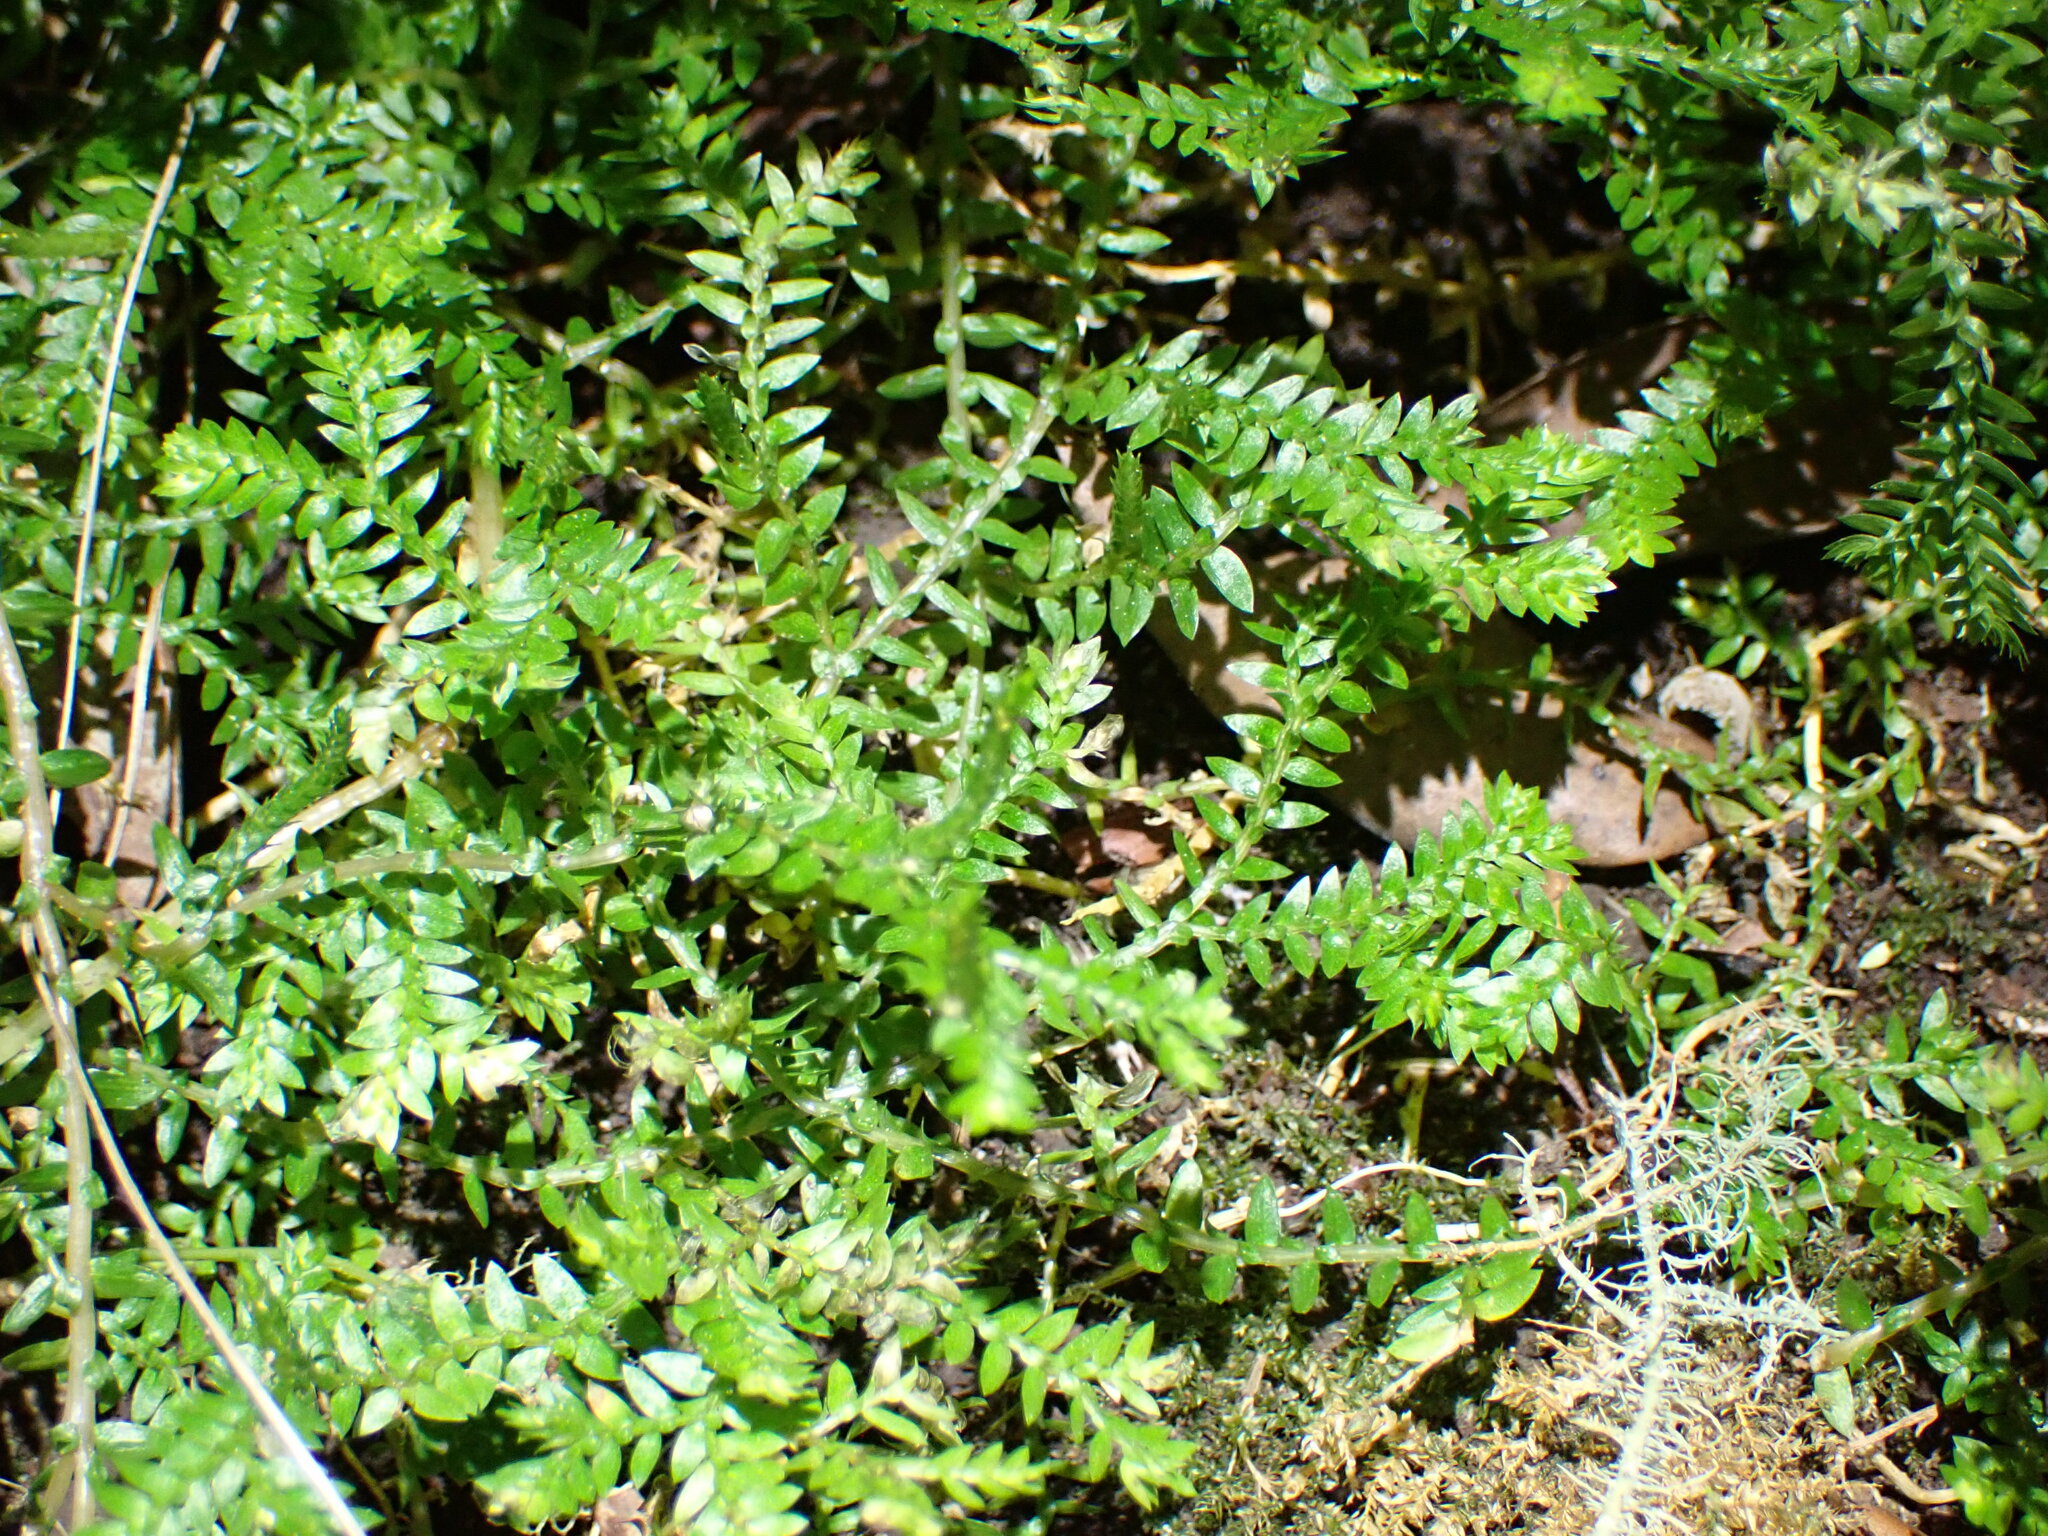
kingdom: Plantae
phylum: Tracheophyta
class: Lycopodiopsida
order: Selaginellales
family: Selaginellaceae
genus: Selaginella
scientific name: Selaginella kraussiana
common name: Krauss' spikemoss
